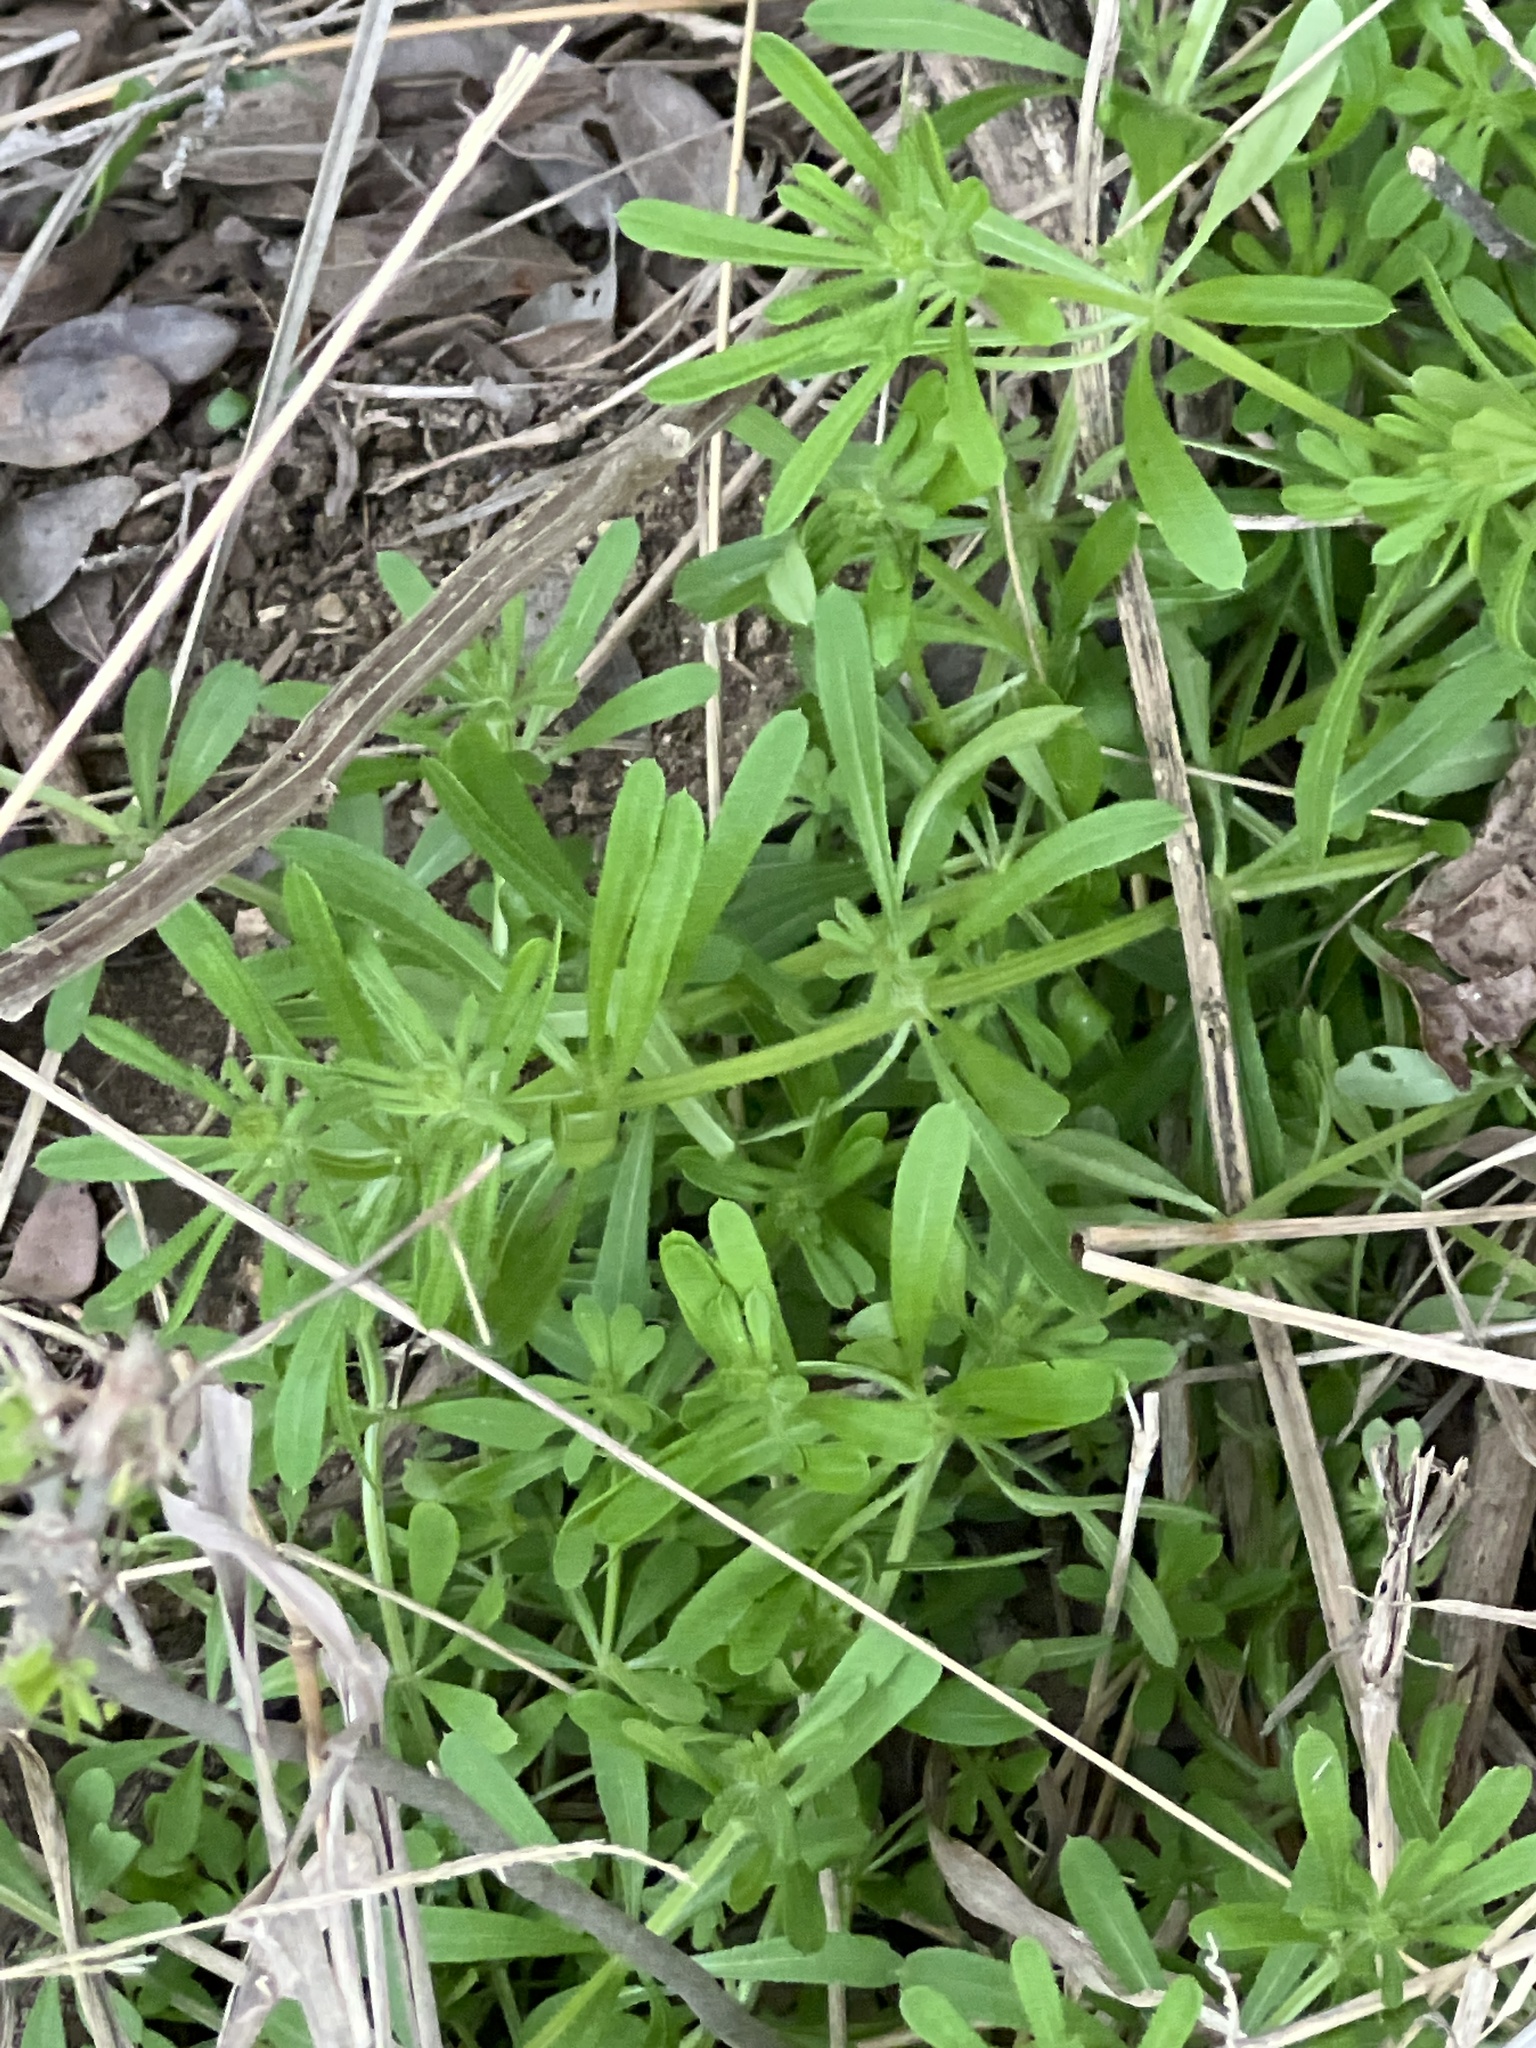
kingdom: Plantae
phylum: Tracheophyta
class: Magnoliopsida
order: Gentianales
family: Rubiaceae
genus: Galium
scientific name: Galium aparine
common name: Cleavers
